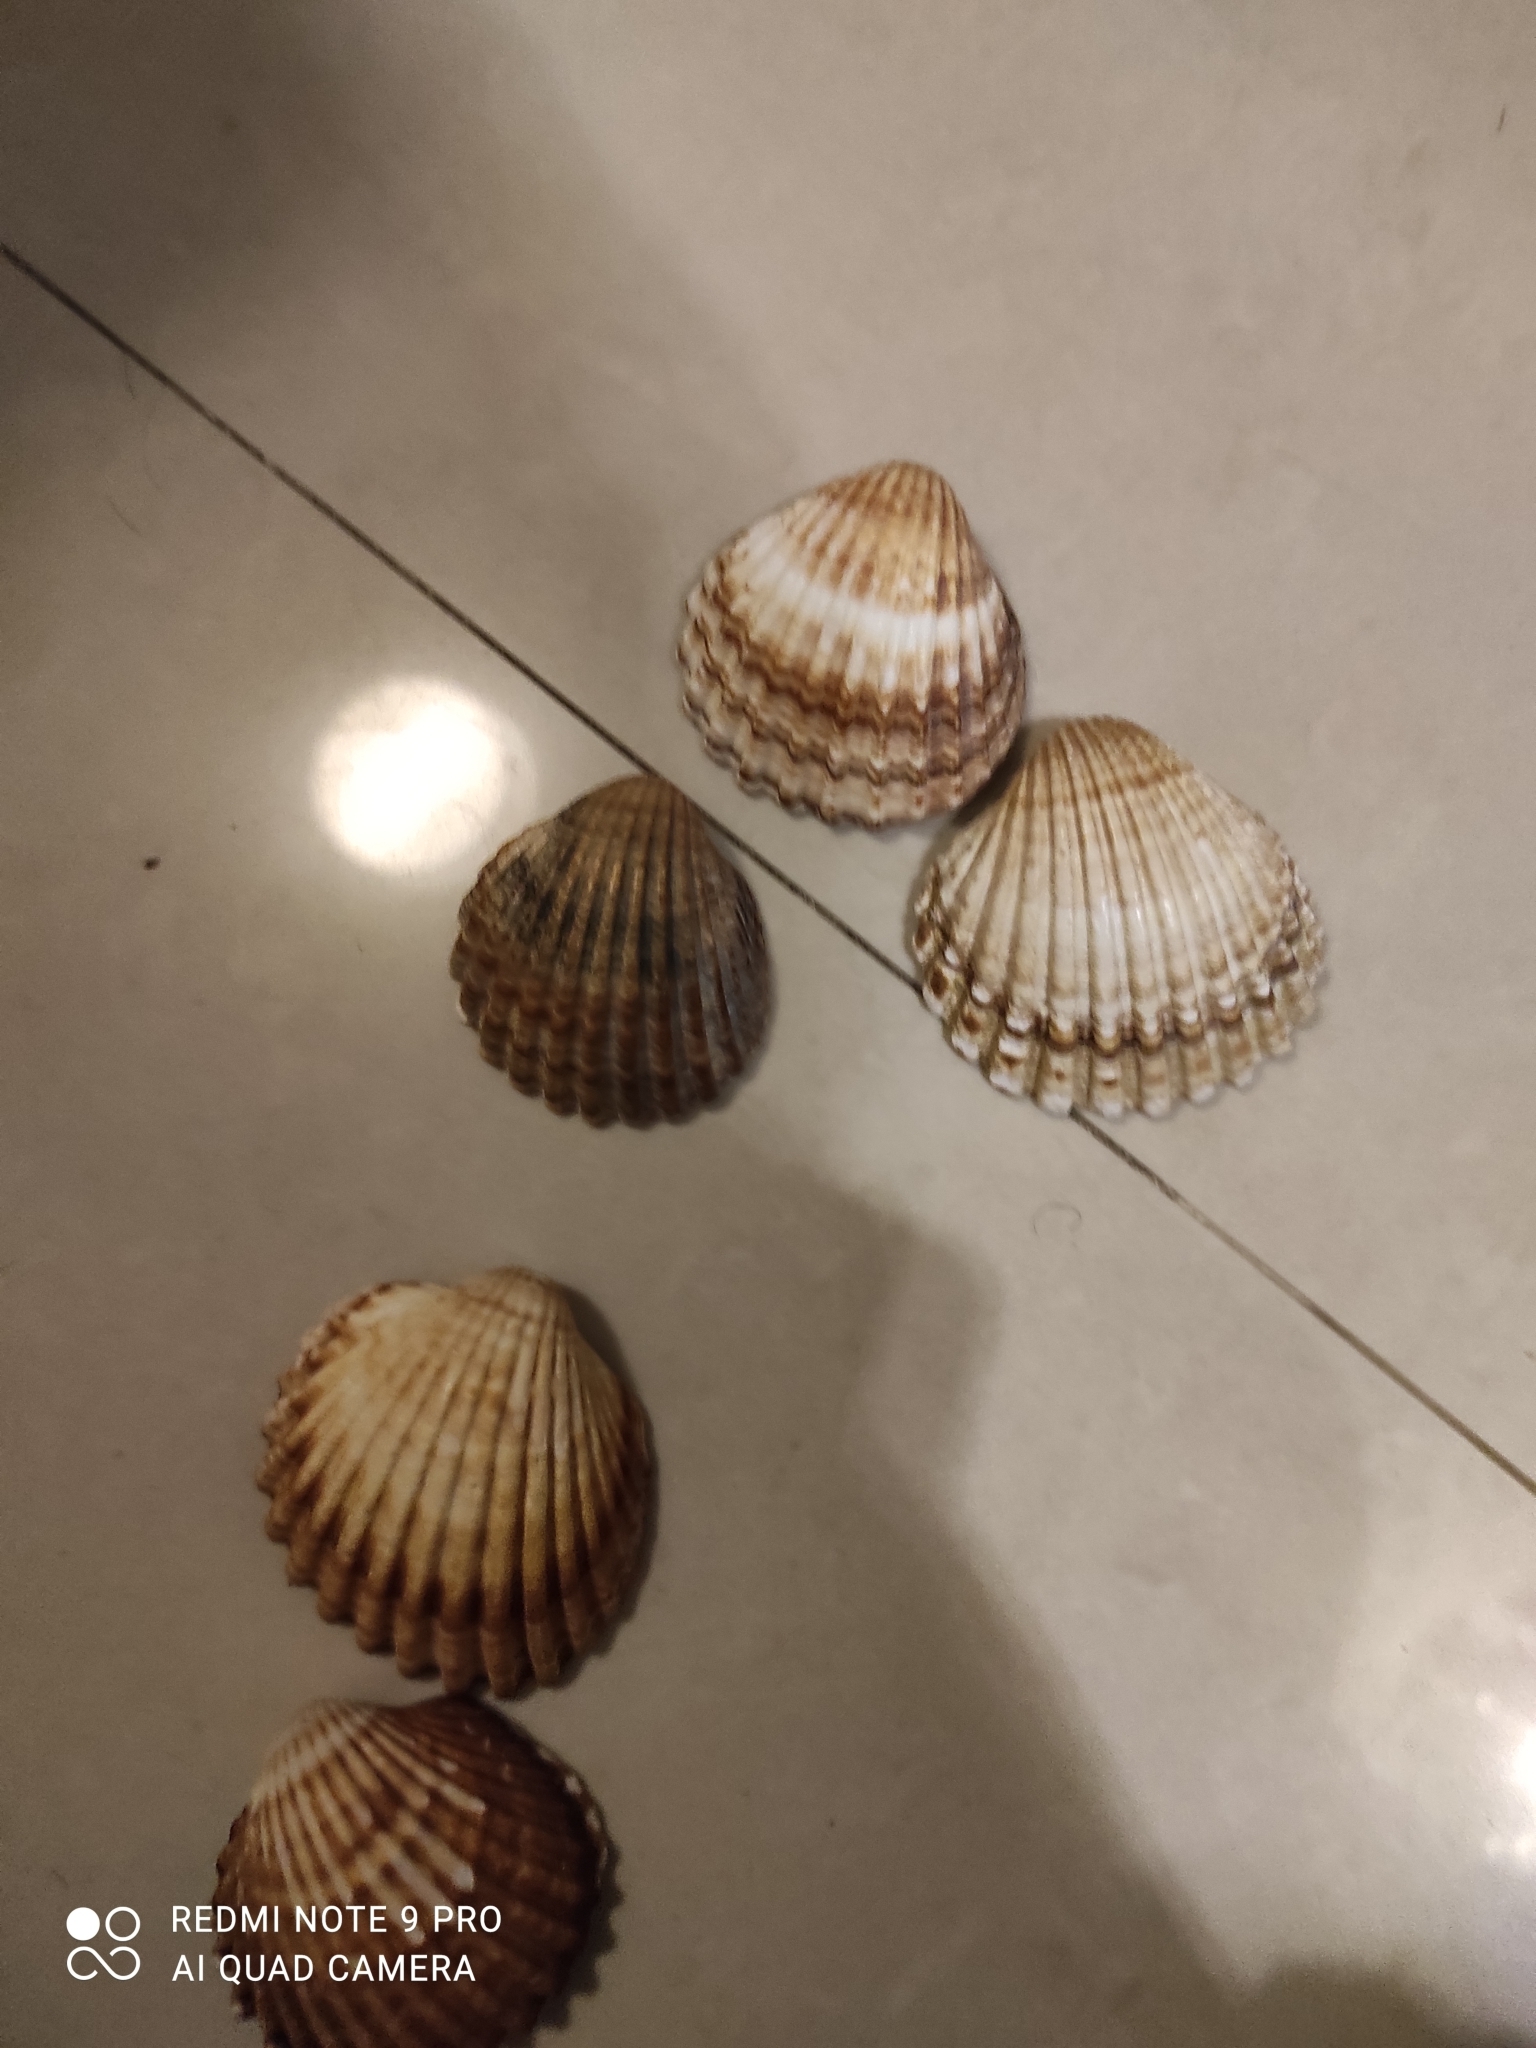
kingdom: Animalia
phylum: Mollusca
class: Bivalvia
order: Cardiida
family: Cardiidae
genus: Acanthocardia
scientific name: Acanthocardia tuberculata
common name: Rough cockle
